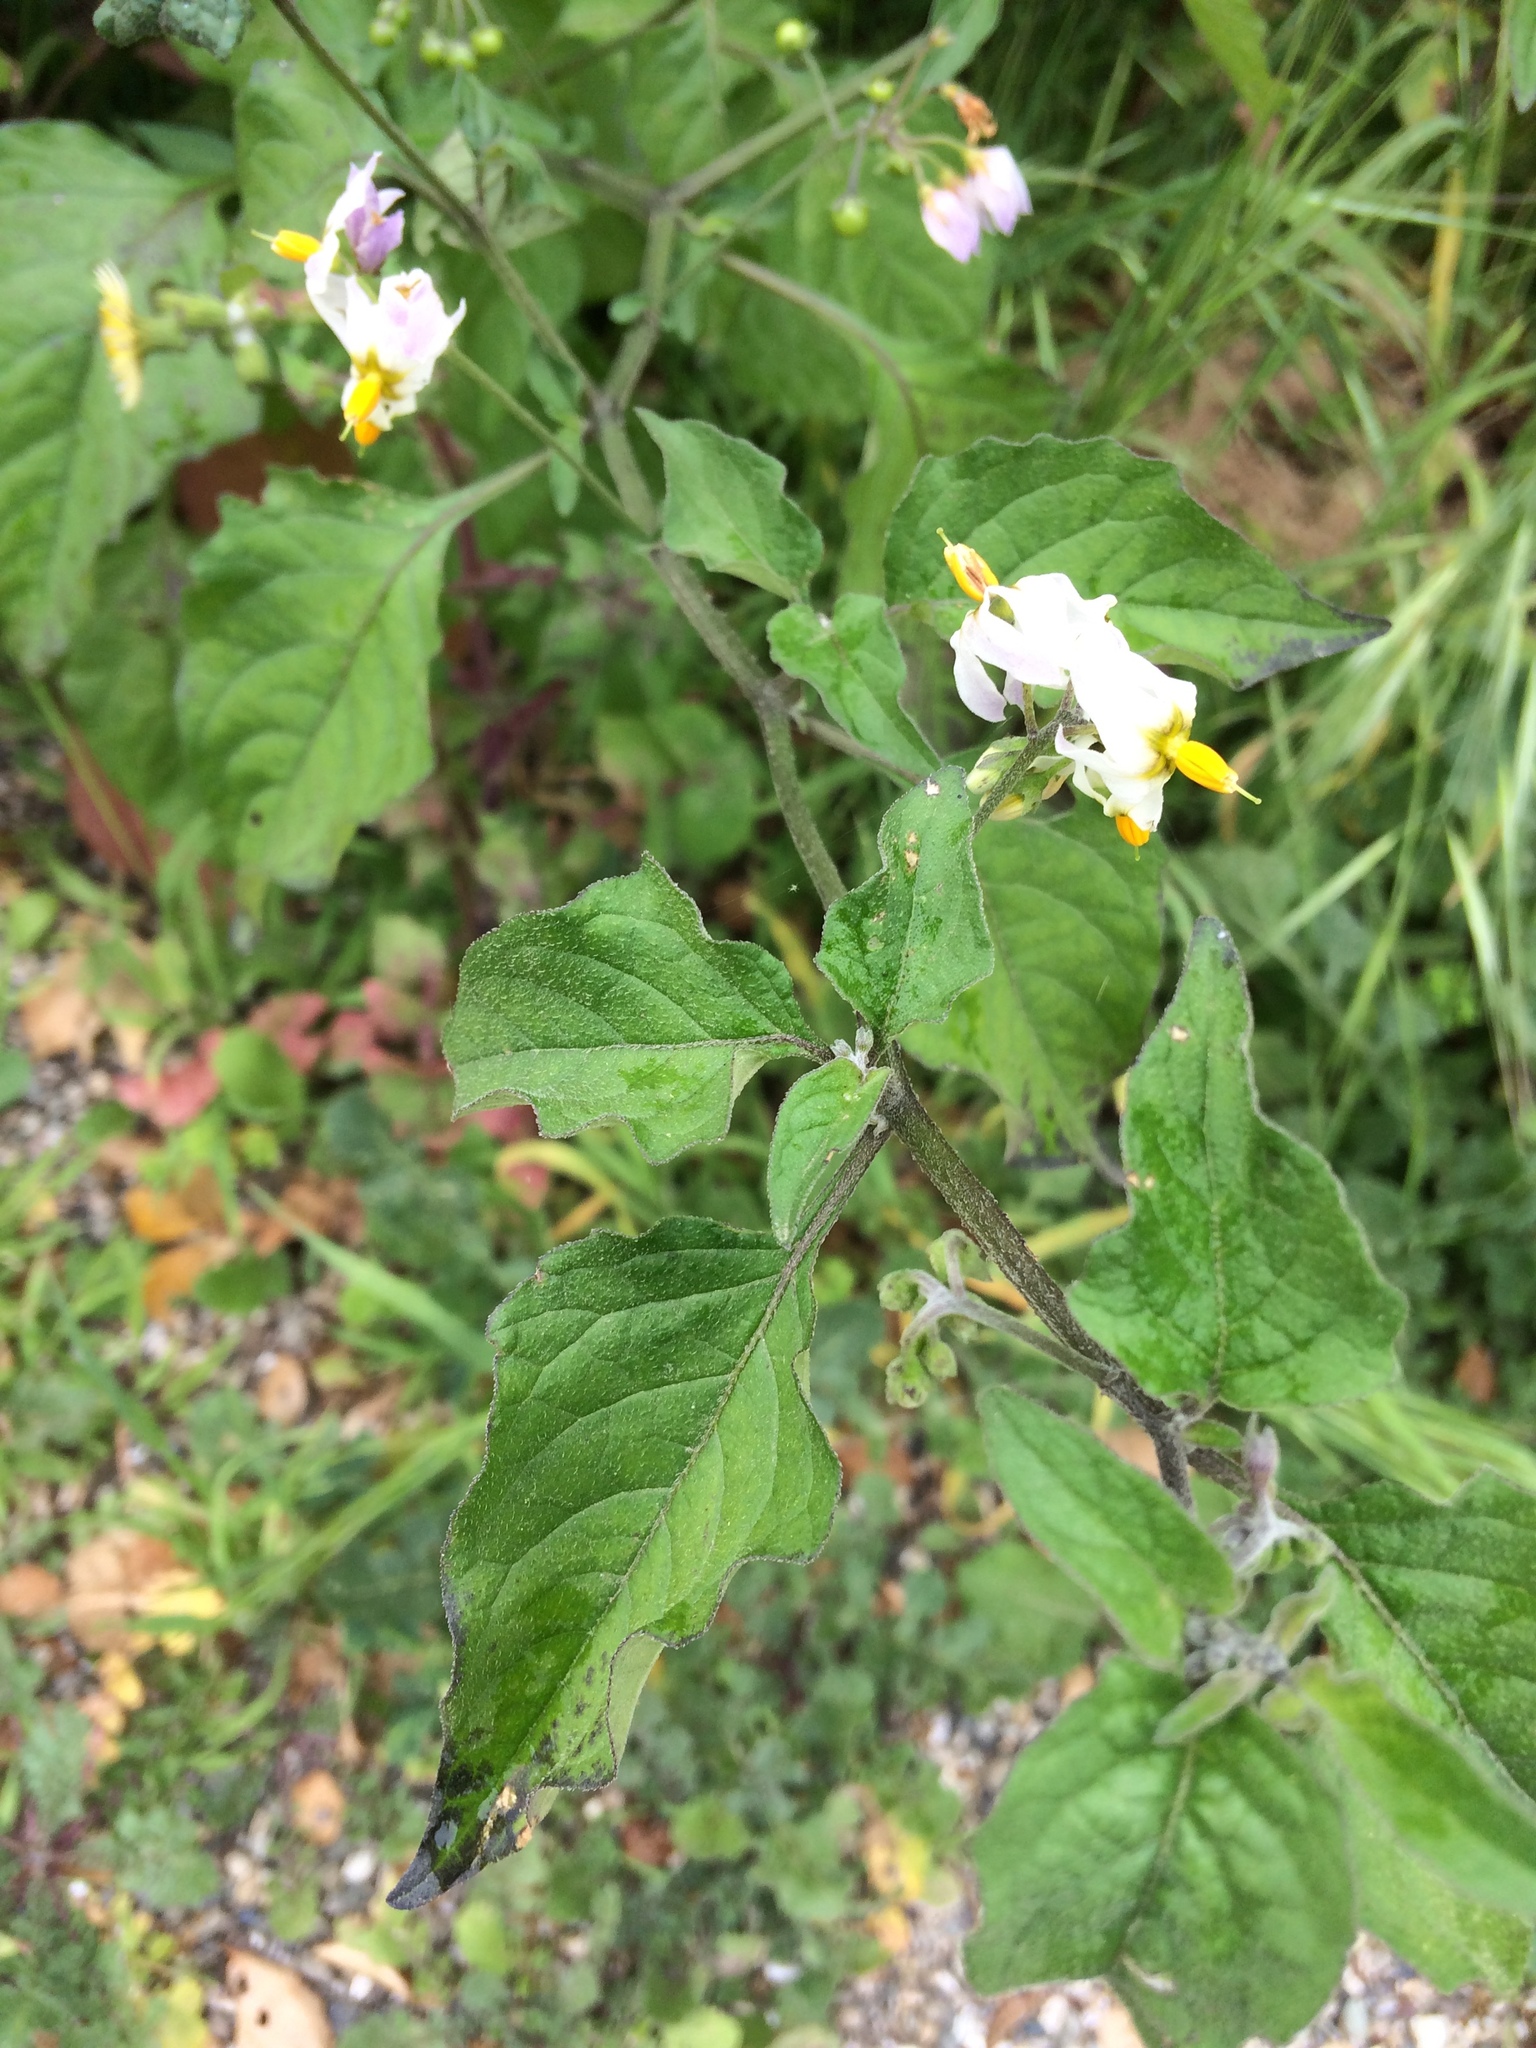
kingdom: Plantae
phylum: Tracheophyta
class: Magnoliopsida
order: Solanales
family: Solanaceae
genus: Solanum
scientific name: Solanum douglasii
